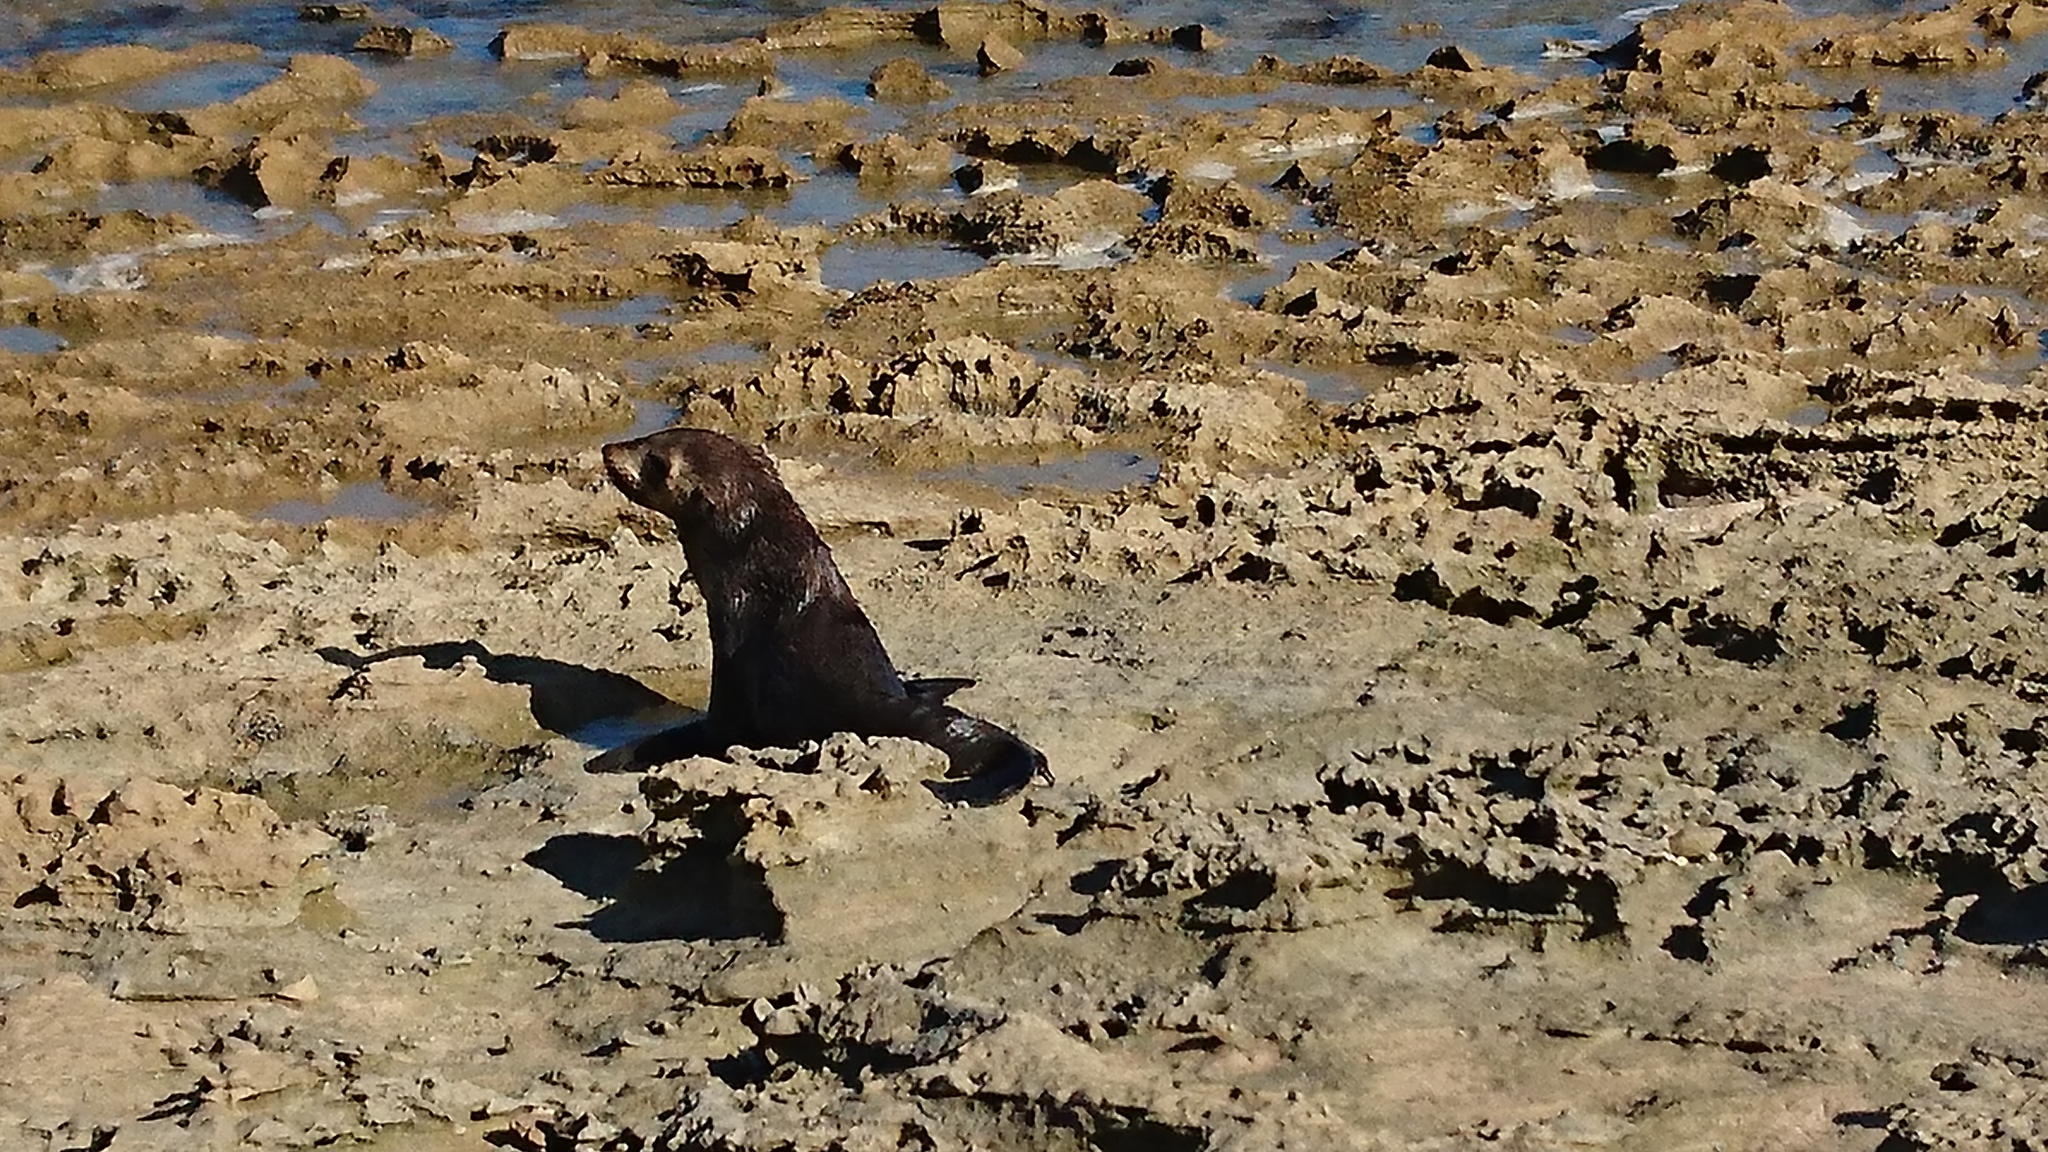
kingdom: Animalia
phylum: Chordata
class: Mammalia
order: Carnivora
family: Otariidae
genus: Arctocephalus
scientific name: Arctocephalus pusillus
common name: Brown fur seal
